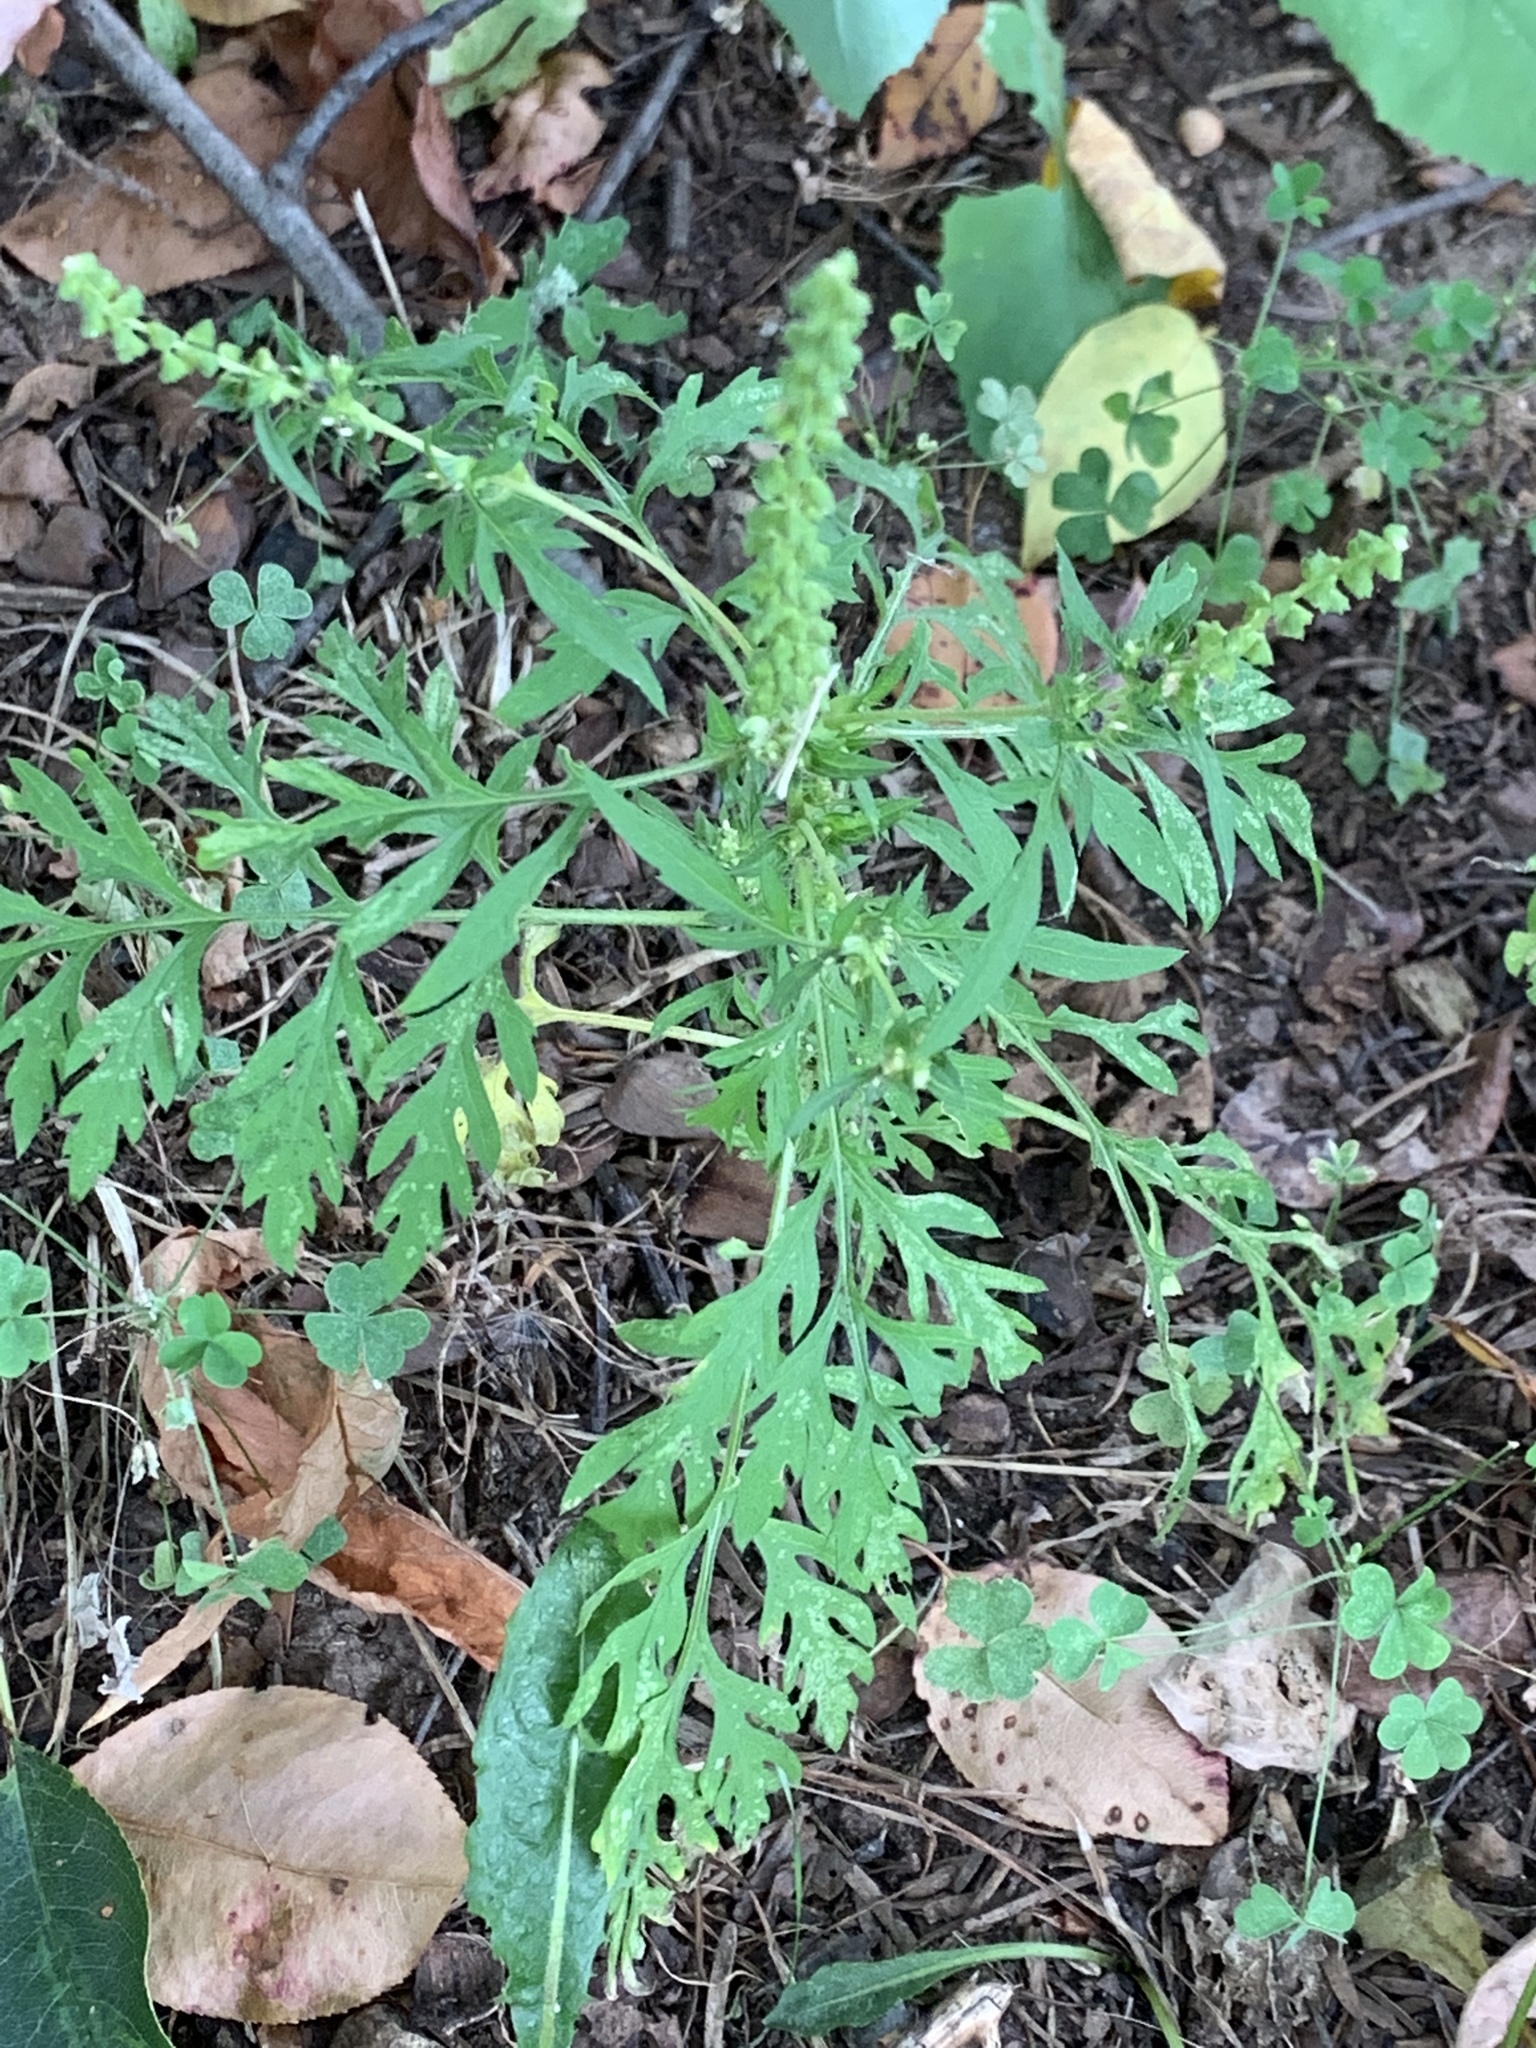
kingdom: Plantae
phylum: Tracheophyta
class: Magnoliopsida
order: Asterales
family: Asteraceae
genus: Ambrosia
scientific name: Ambrosia artemisiifolia
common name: Annual ragweed
